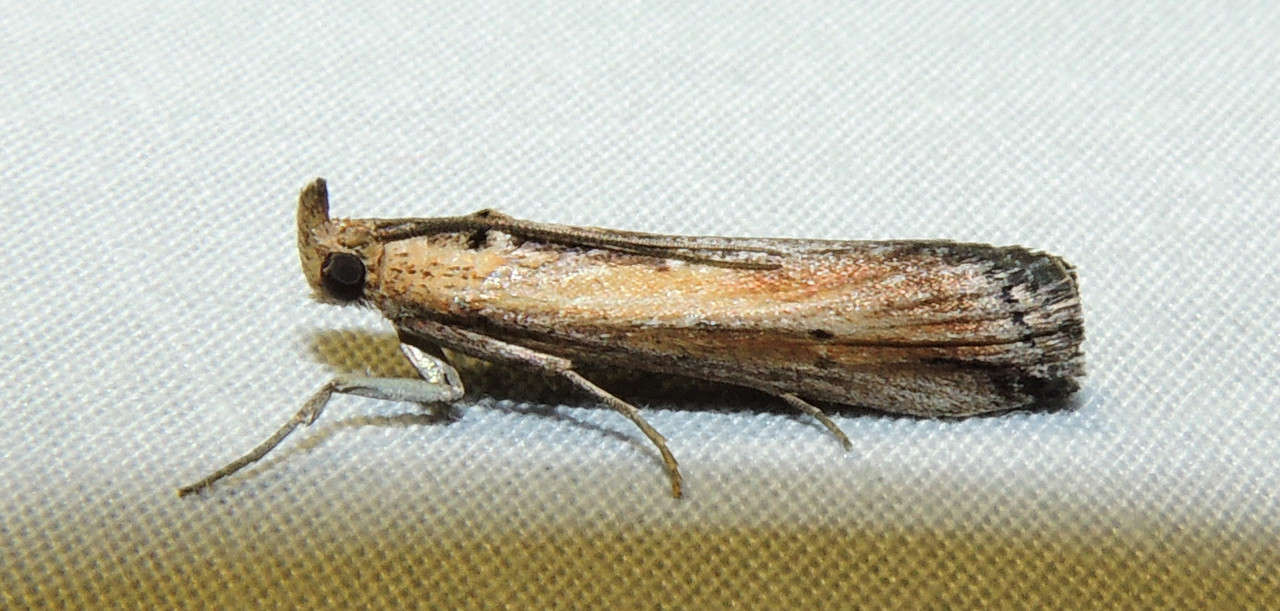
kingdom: Animalia
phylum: Arthropoda
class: Insecta
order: Lepidoptera
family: Pyralidae
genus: Morosaphycita
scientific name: Morosaphycita oculiferella
